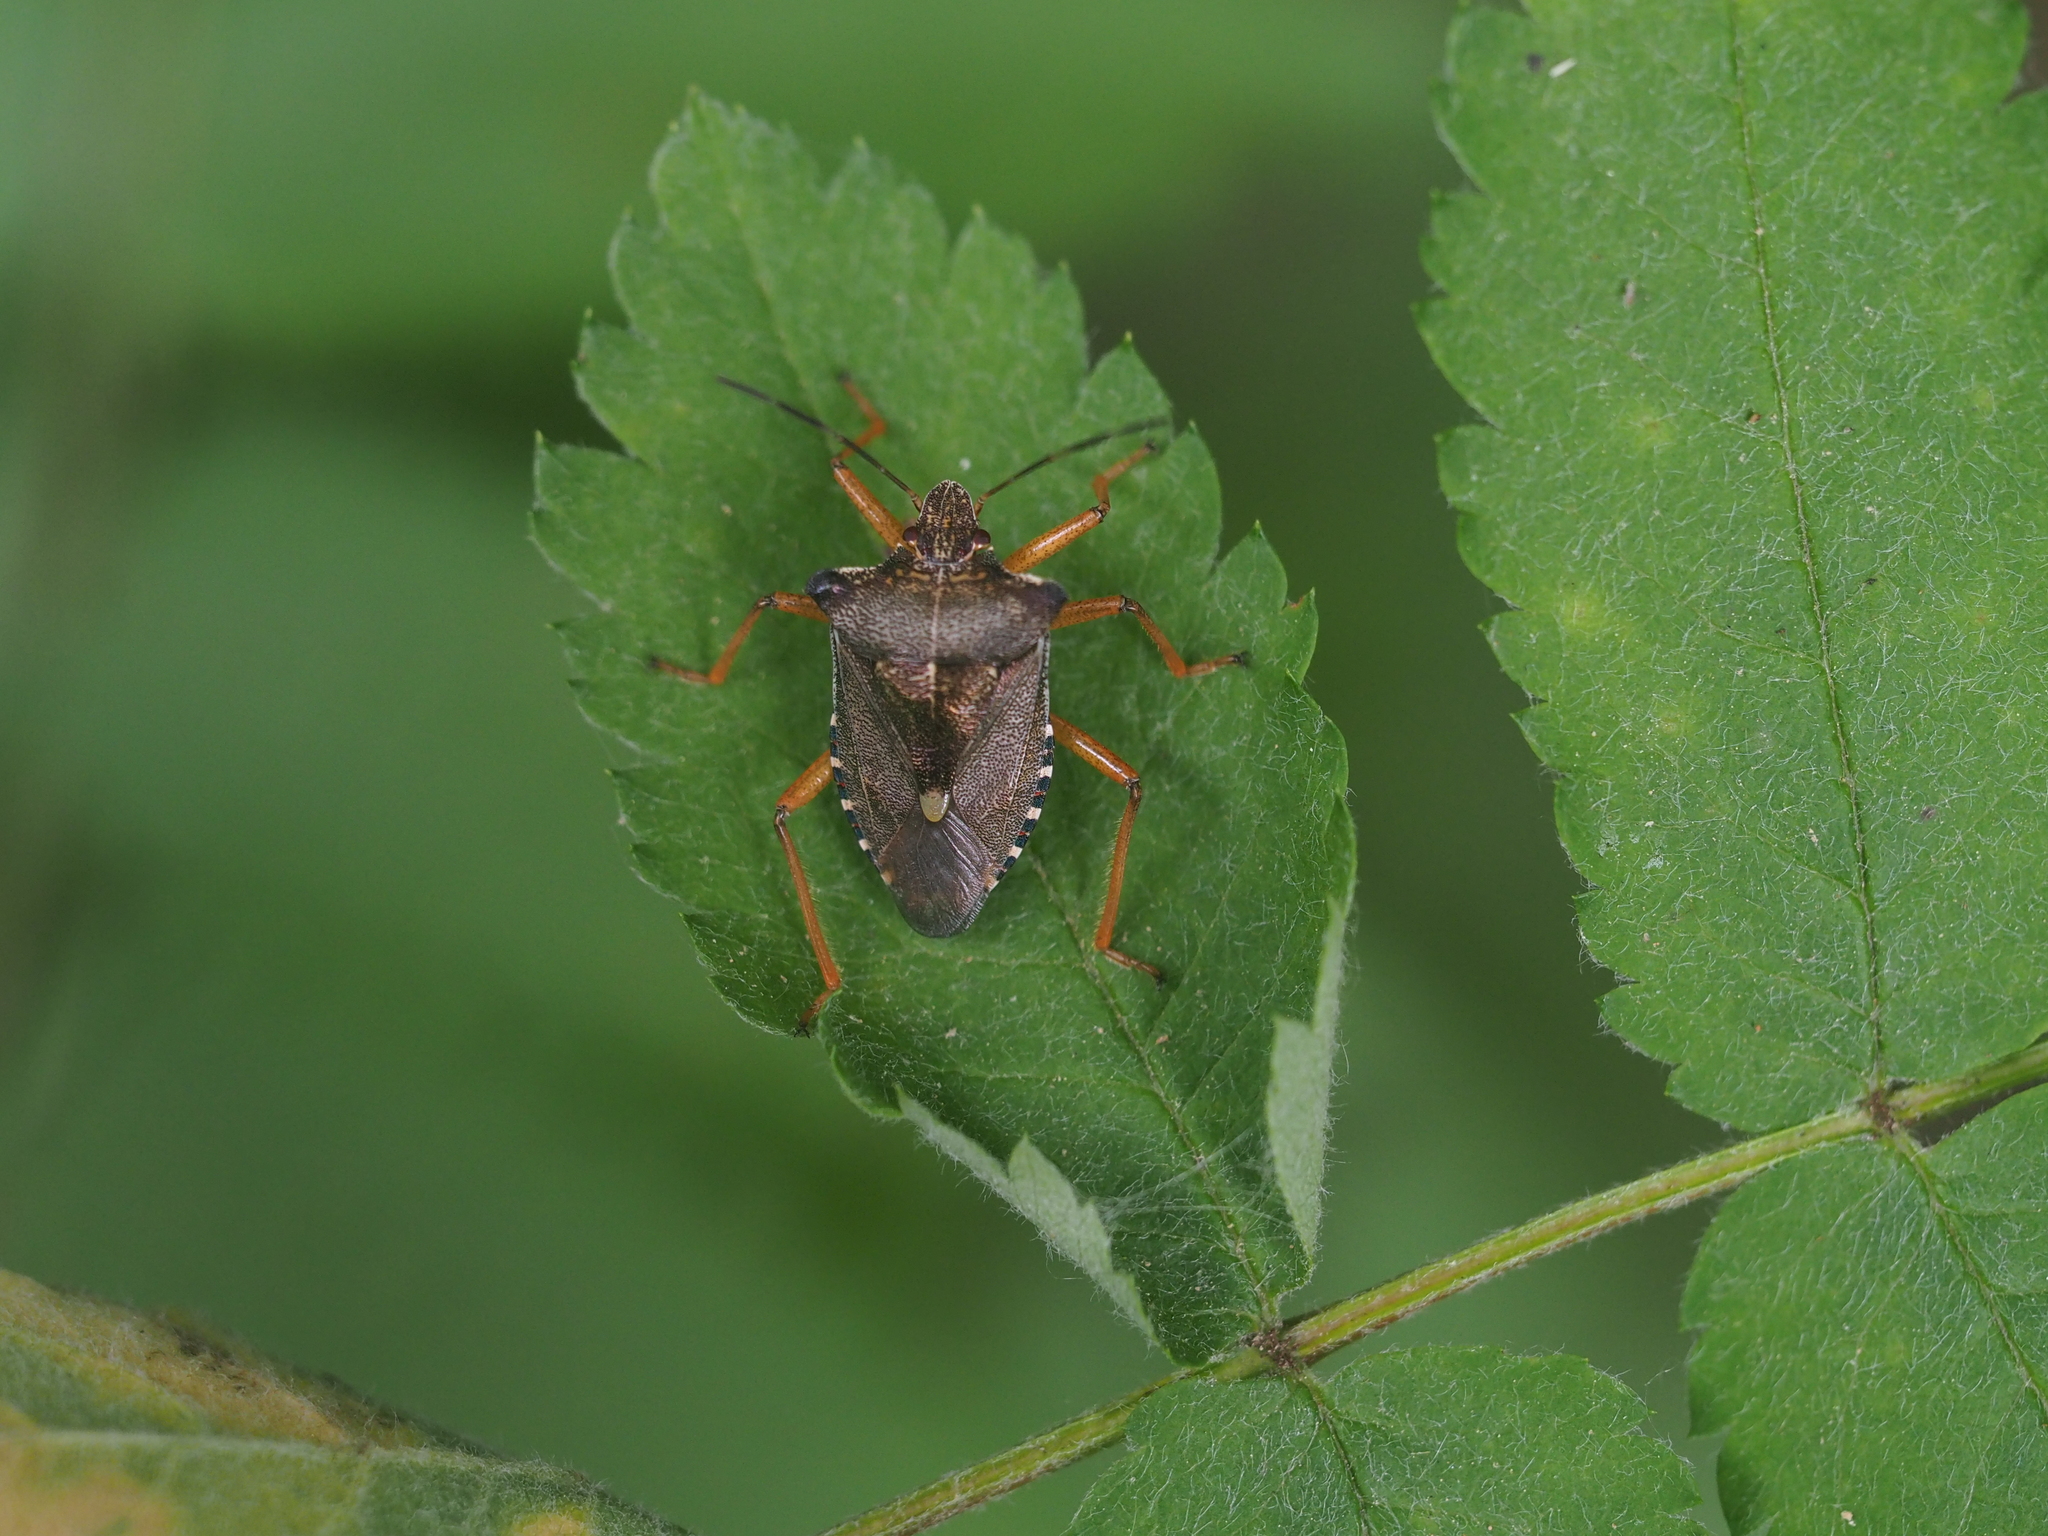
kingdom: Animalia
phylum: Arthropoda
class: Insecta
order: Hemiptera
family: Pentatomidae
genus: Pentatoma
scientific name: Pentatoma rufipes
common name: Forest bug
